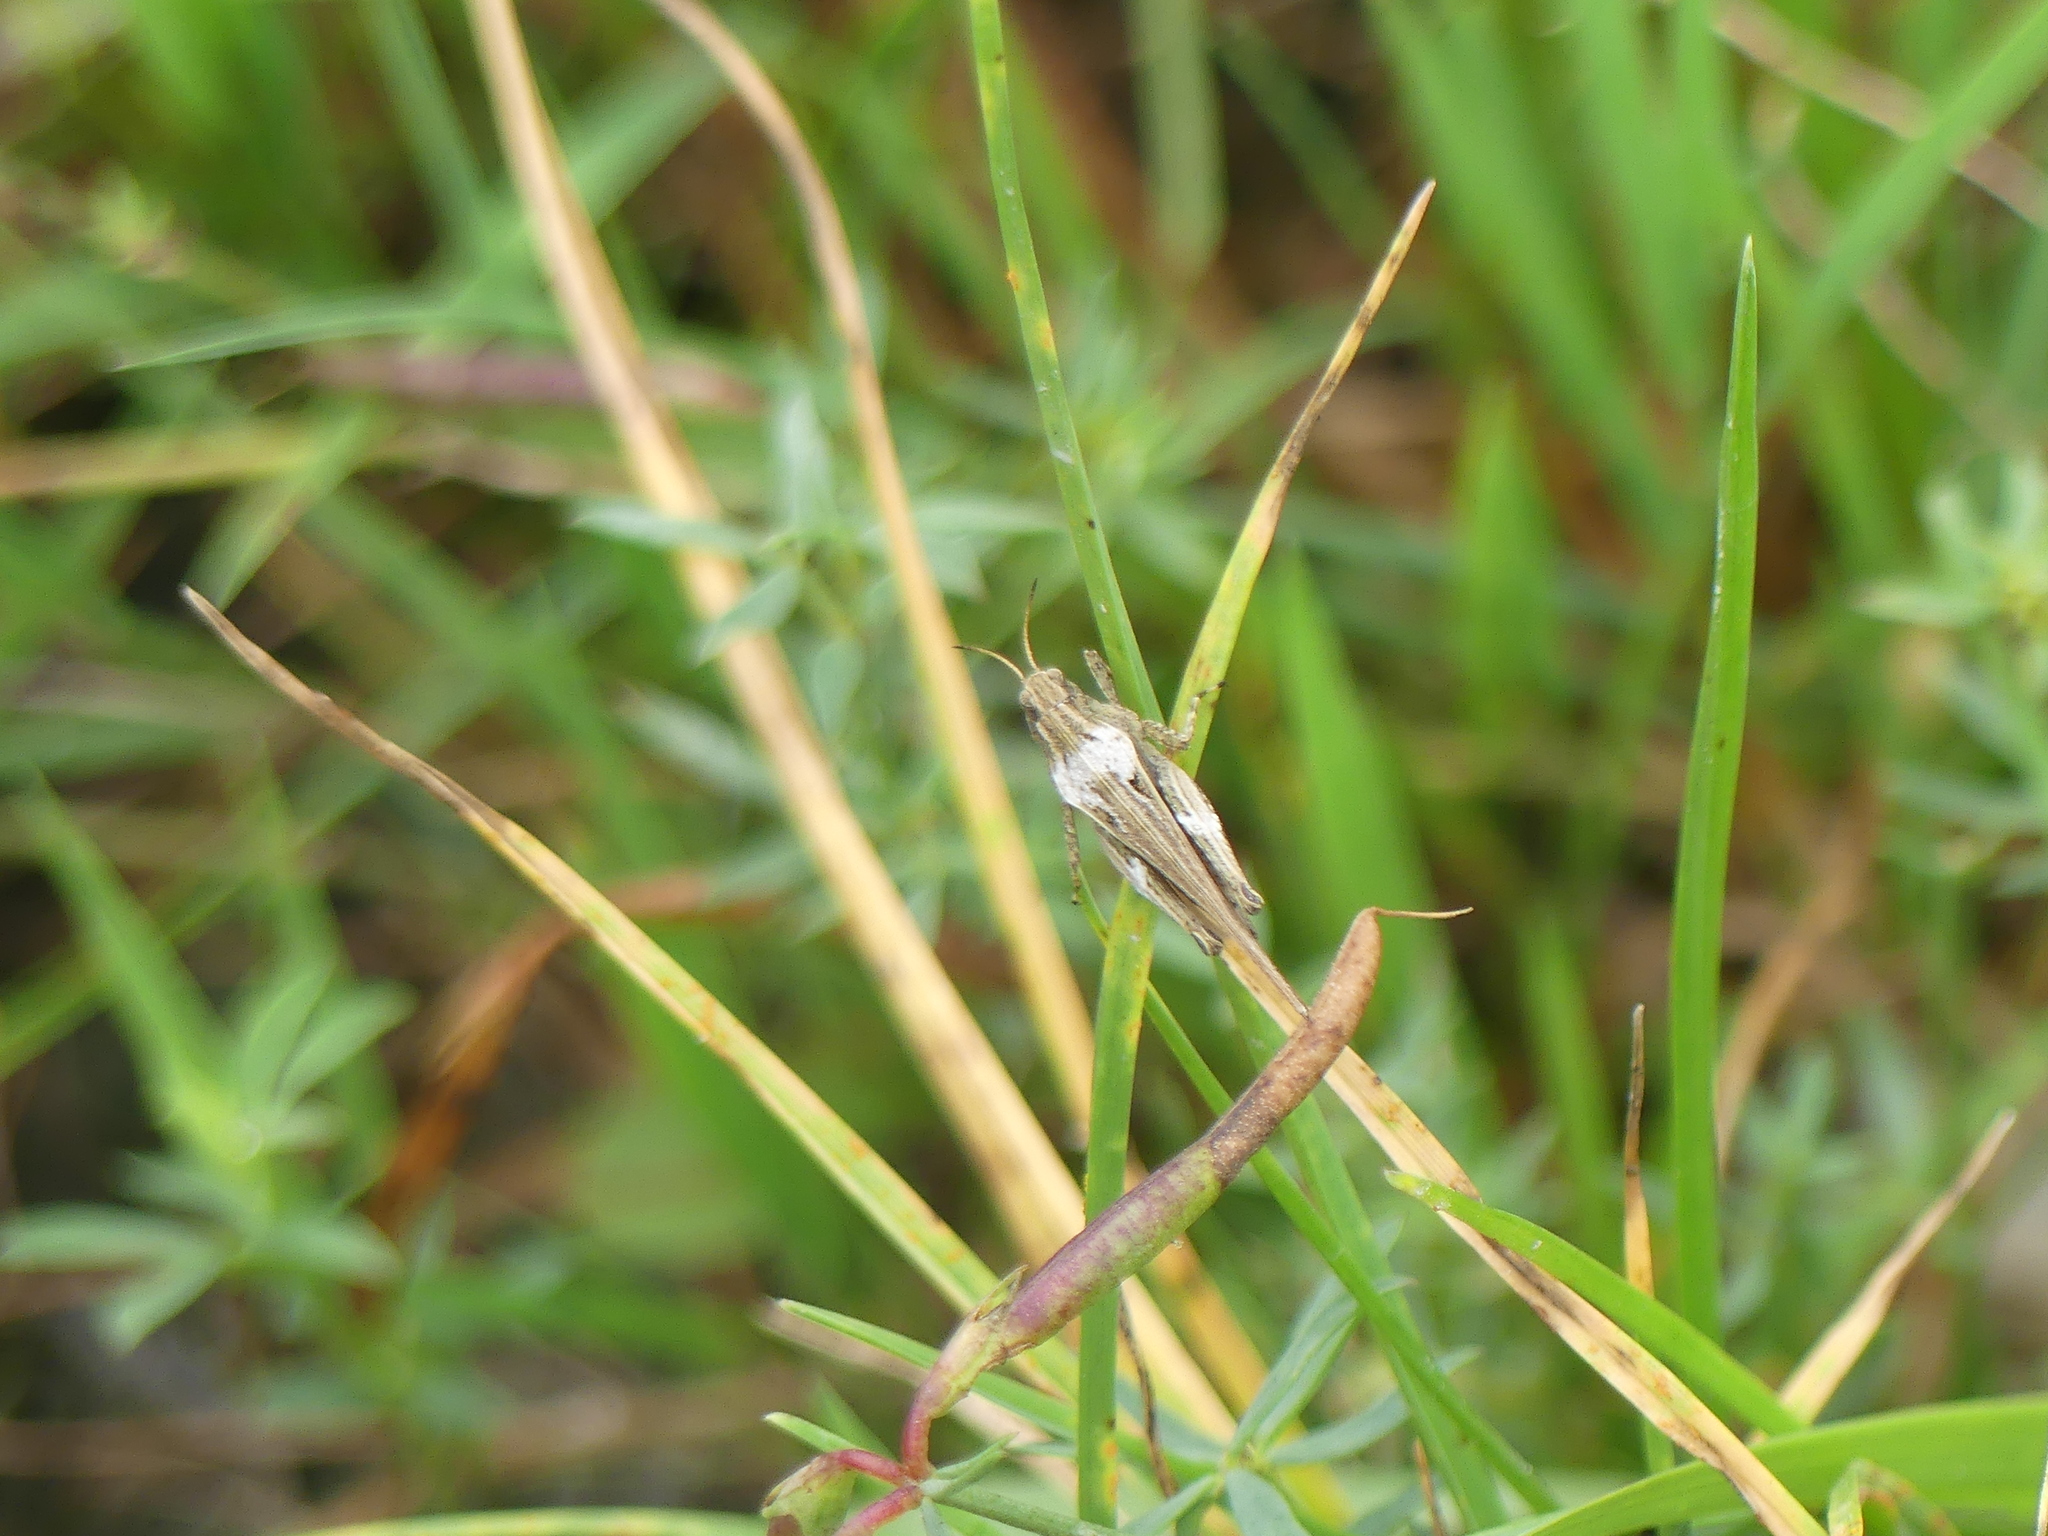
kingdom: Animalia
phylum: Arthropoda
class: Insecta
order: Orthoptera
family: Tetrigidae
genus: Tetrix
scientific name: Tetrix subulata
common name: Slender ground-hopper
